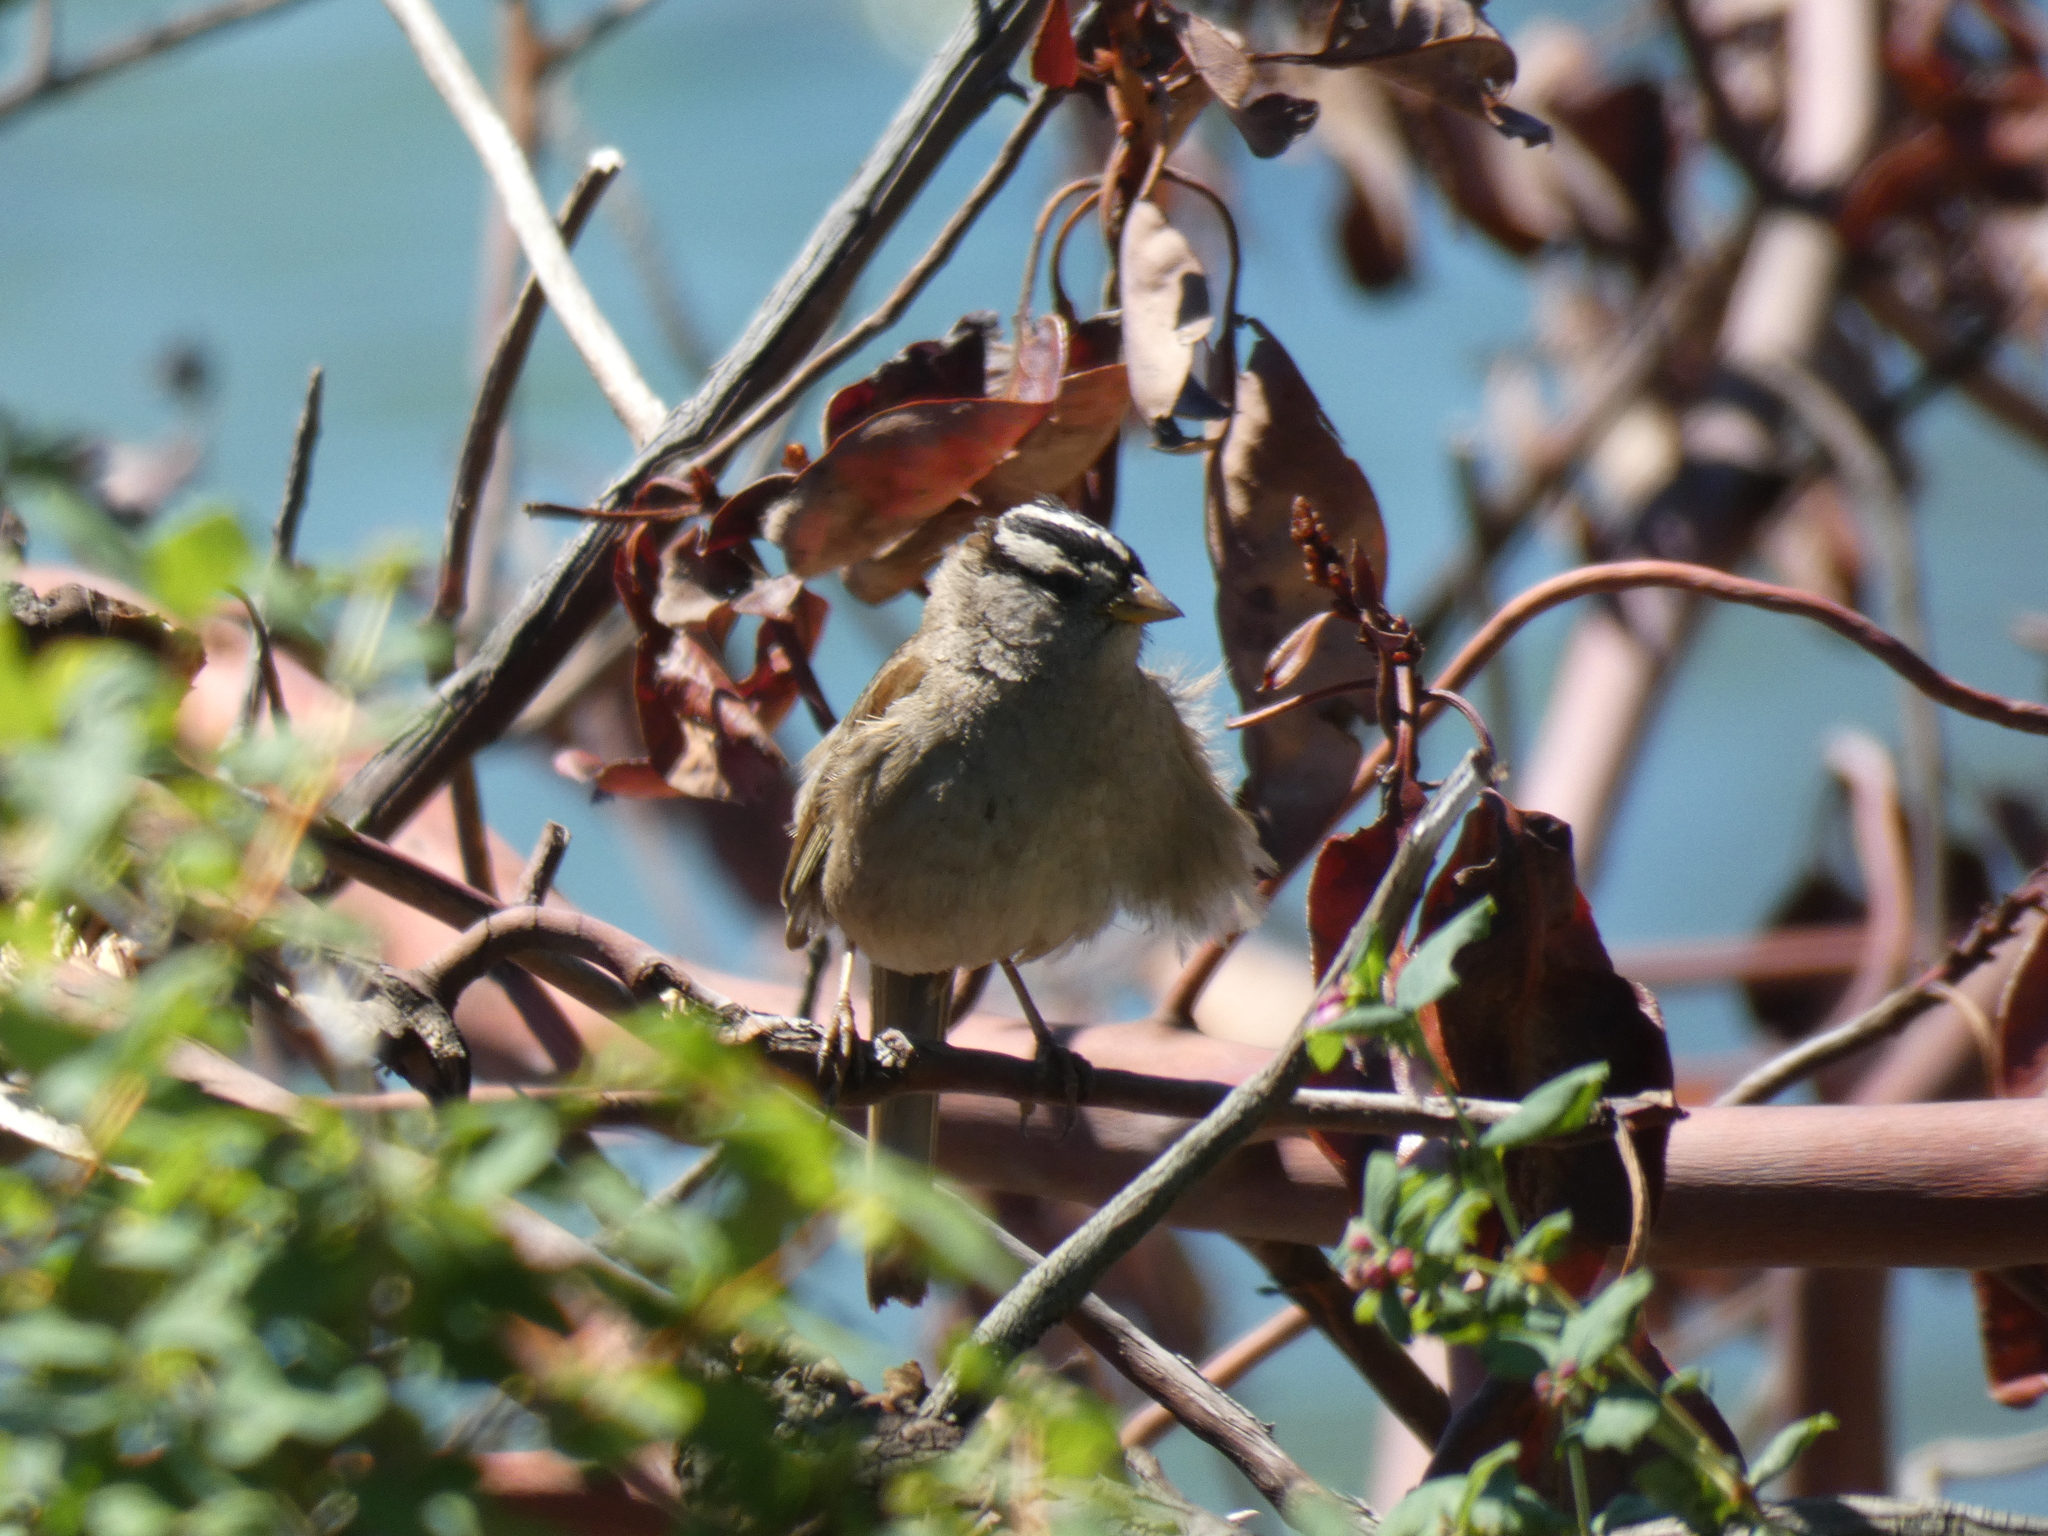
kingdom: Animalia
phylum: Chordata
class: Aves
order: Passeriformes
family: Passerellidae
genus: Zonotrichia
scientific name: Zonotrichia leucophrys
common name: White-crowned sparrow
